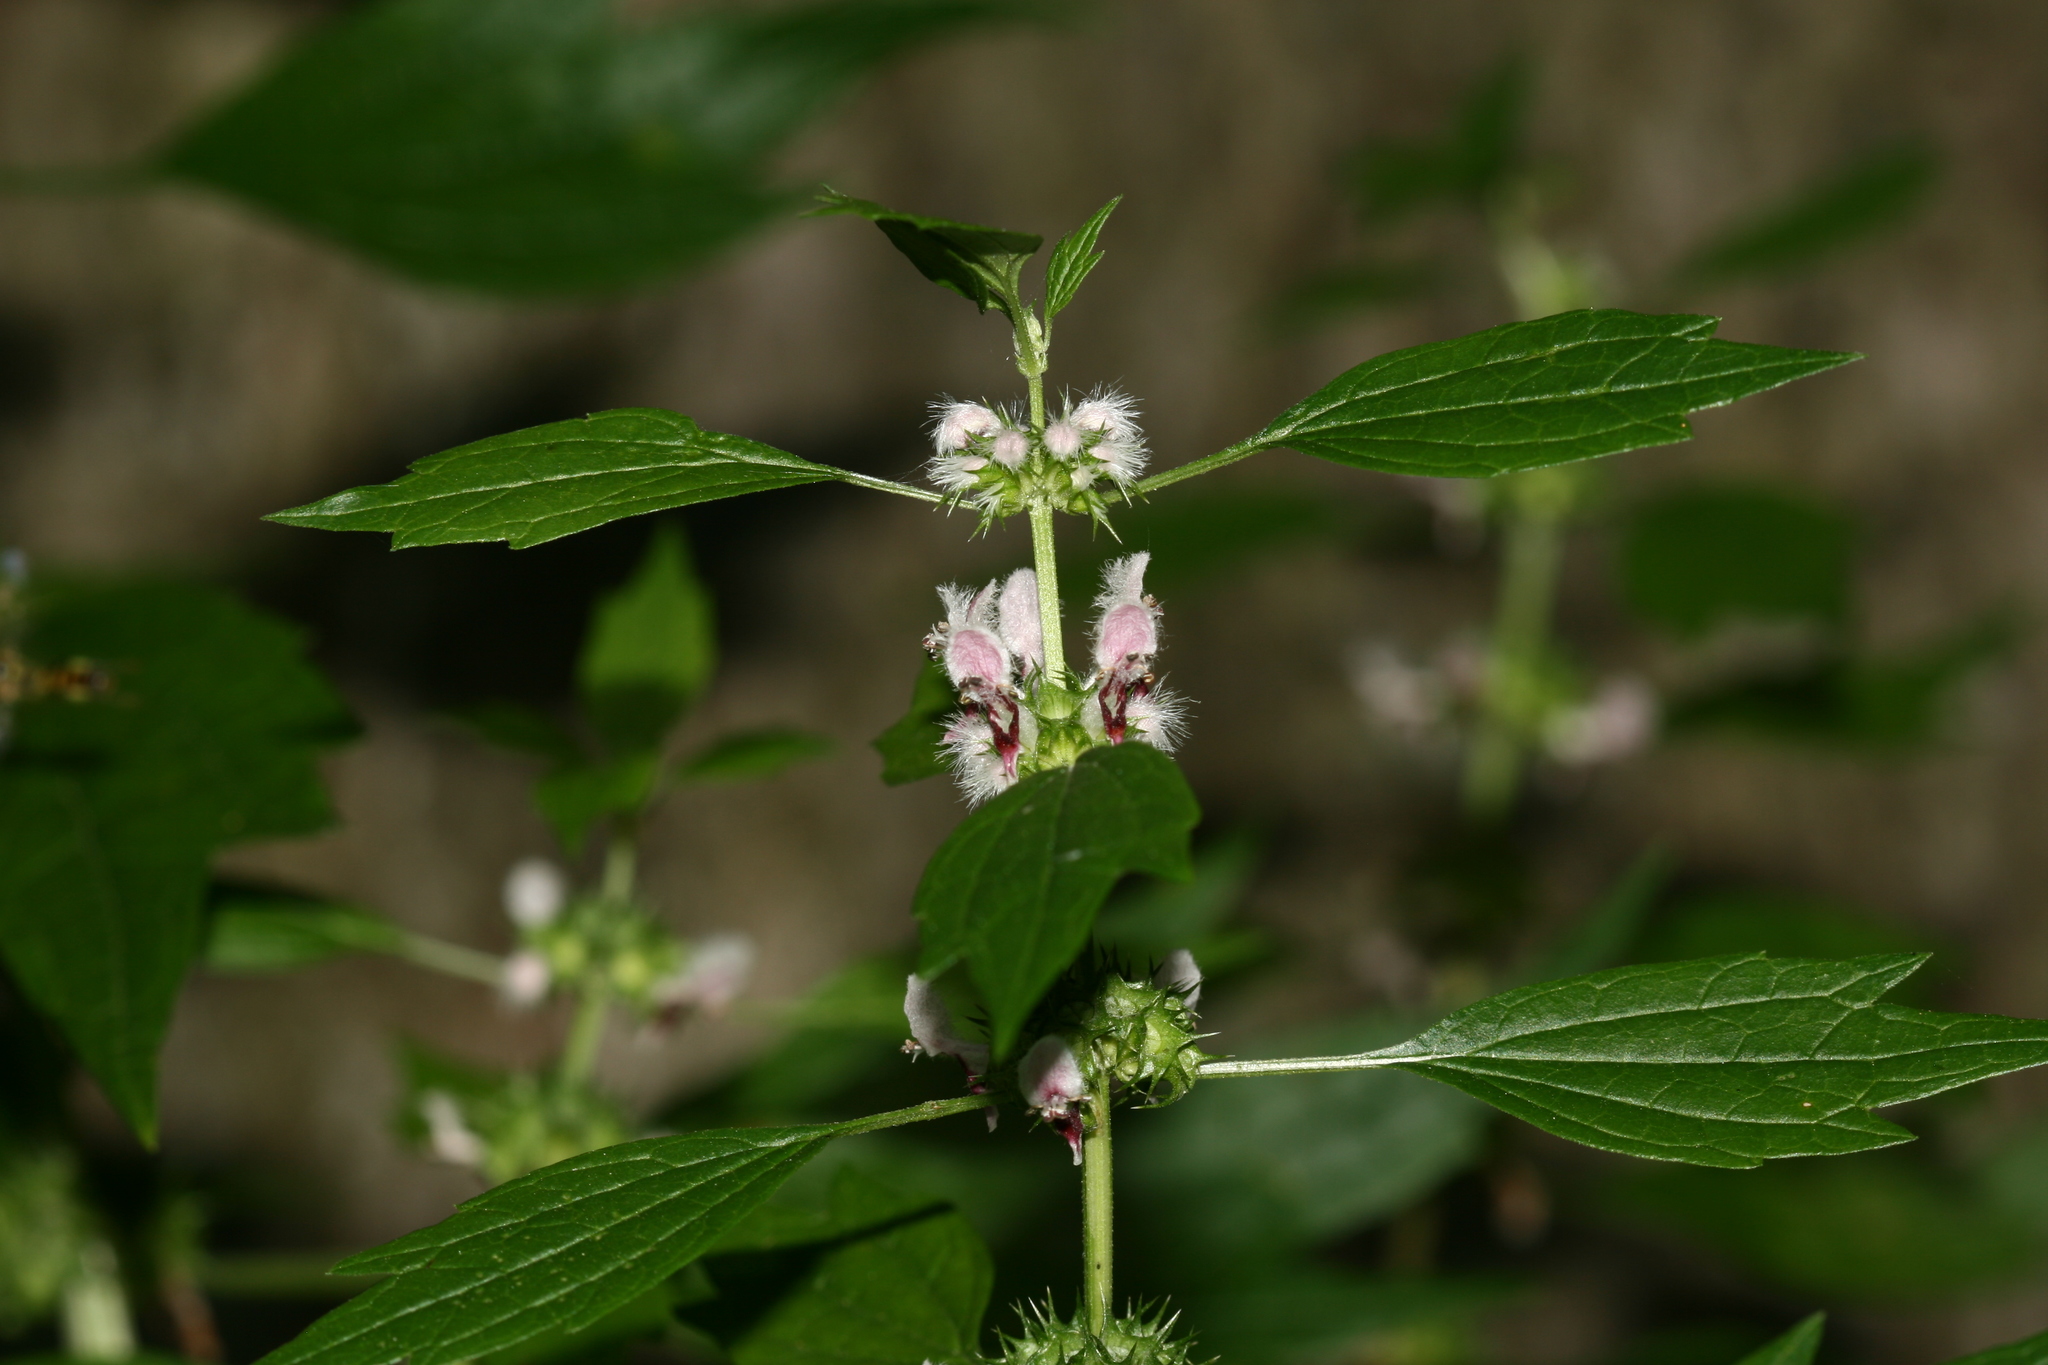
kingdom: Plantae
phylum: Tracheophyta
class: Magnoliopsida
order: Lamiales
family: Lamiaceae
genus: Leonurus
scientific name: Leonurus cardiaca
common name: Motherwort
